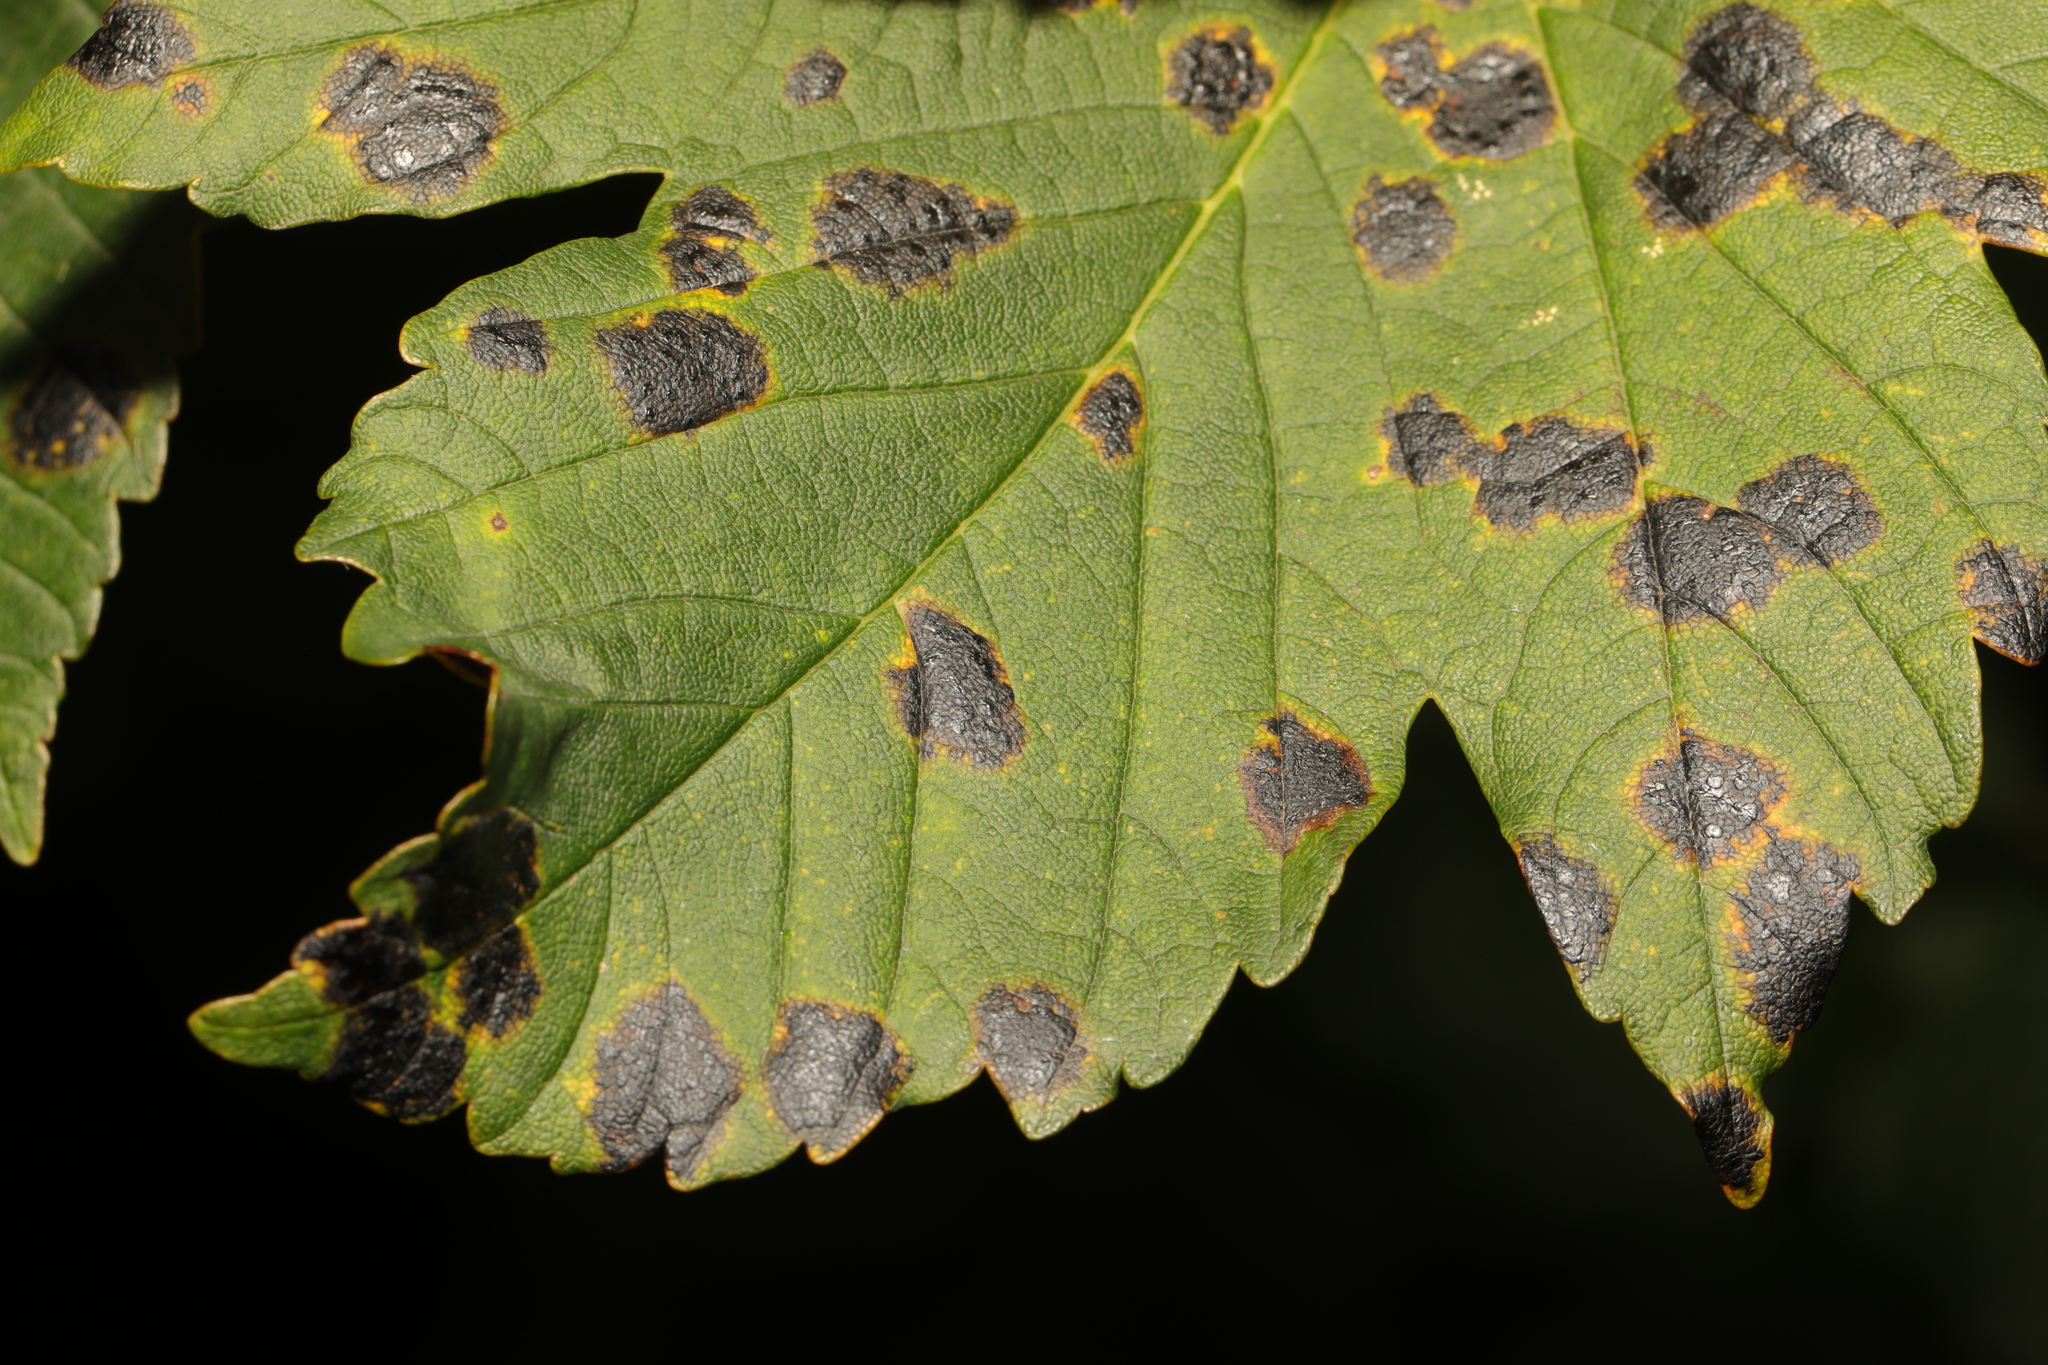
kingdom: Fungi
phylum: Ascomycota
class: Leotiomycetes
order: Rhytismatales
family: Rhytismataceae
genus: Rhytisma
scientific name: Rhytisma acerinum
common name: European tar spot
